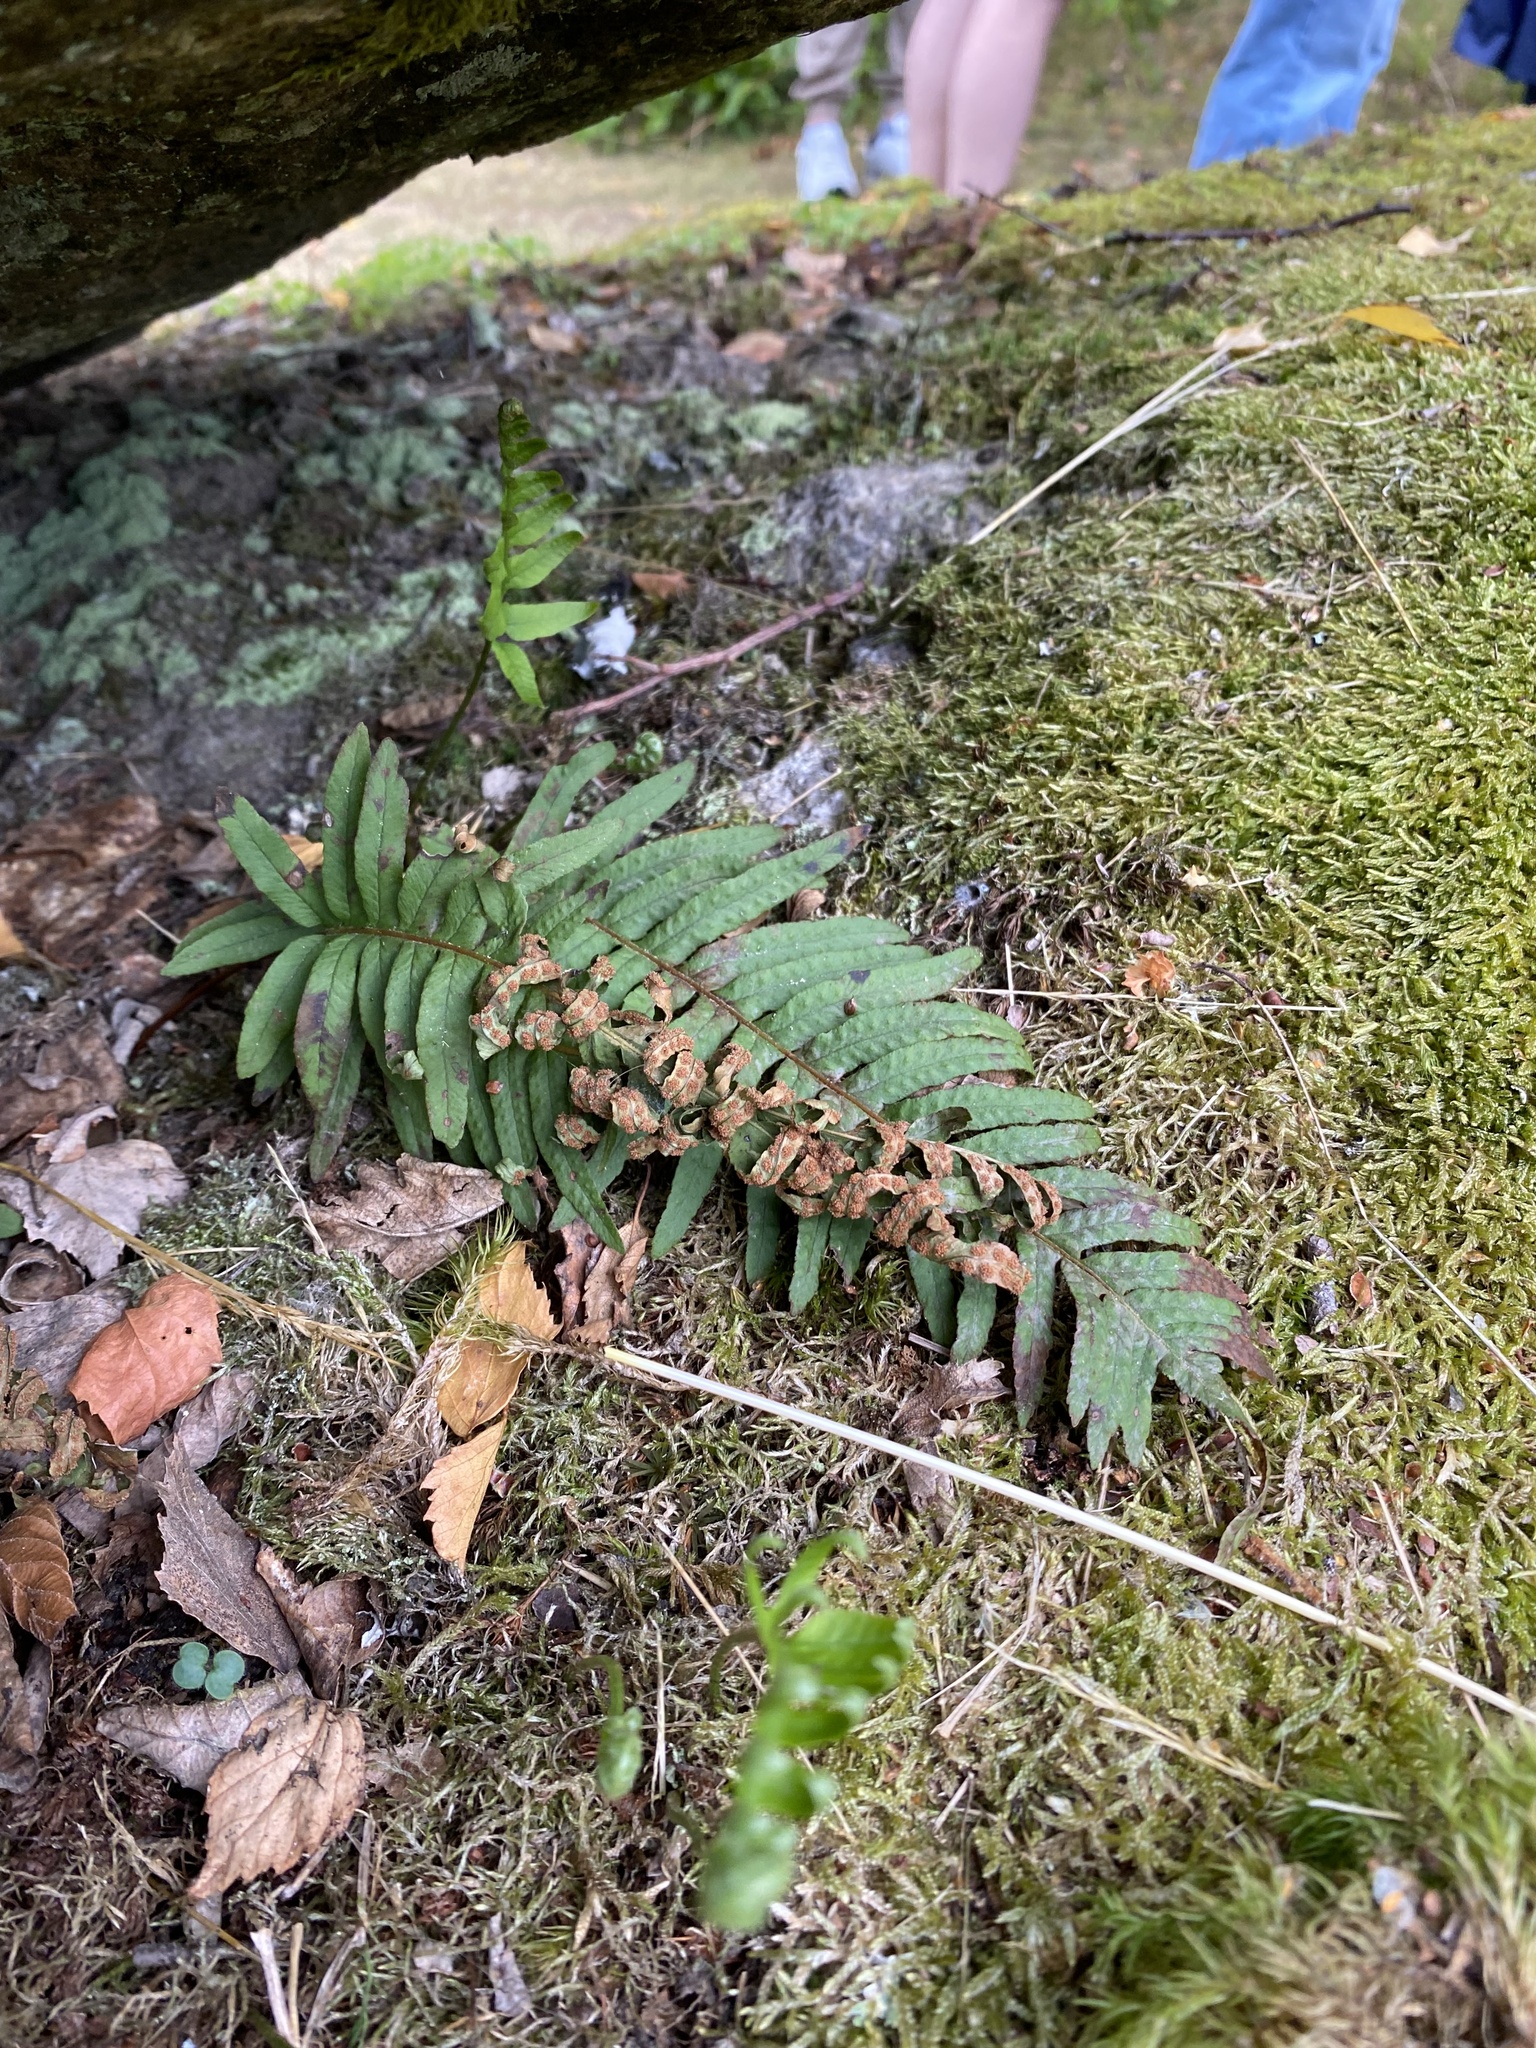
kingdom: Plantae
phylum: Tracheophyta
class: Polypodiopsida
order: Polypodiales
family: Polypodiaceae
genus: Polypodium
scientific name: Polypodium vulgare
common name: Common polypody
